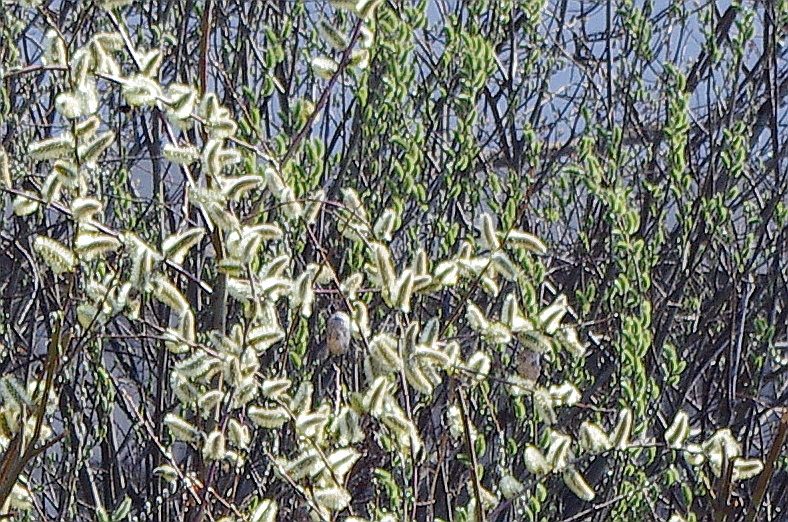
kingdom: Plantae
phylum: Tracheophyta
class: Magnoliopsida
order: Malpighiales
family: Salicaceae
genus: Salix
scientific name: Salix cinerea
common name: Common sallow
